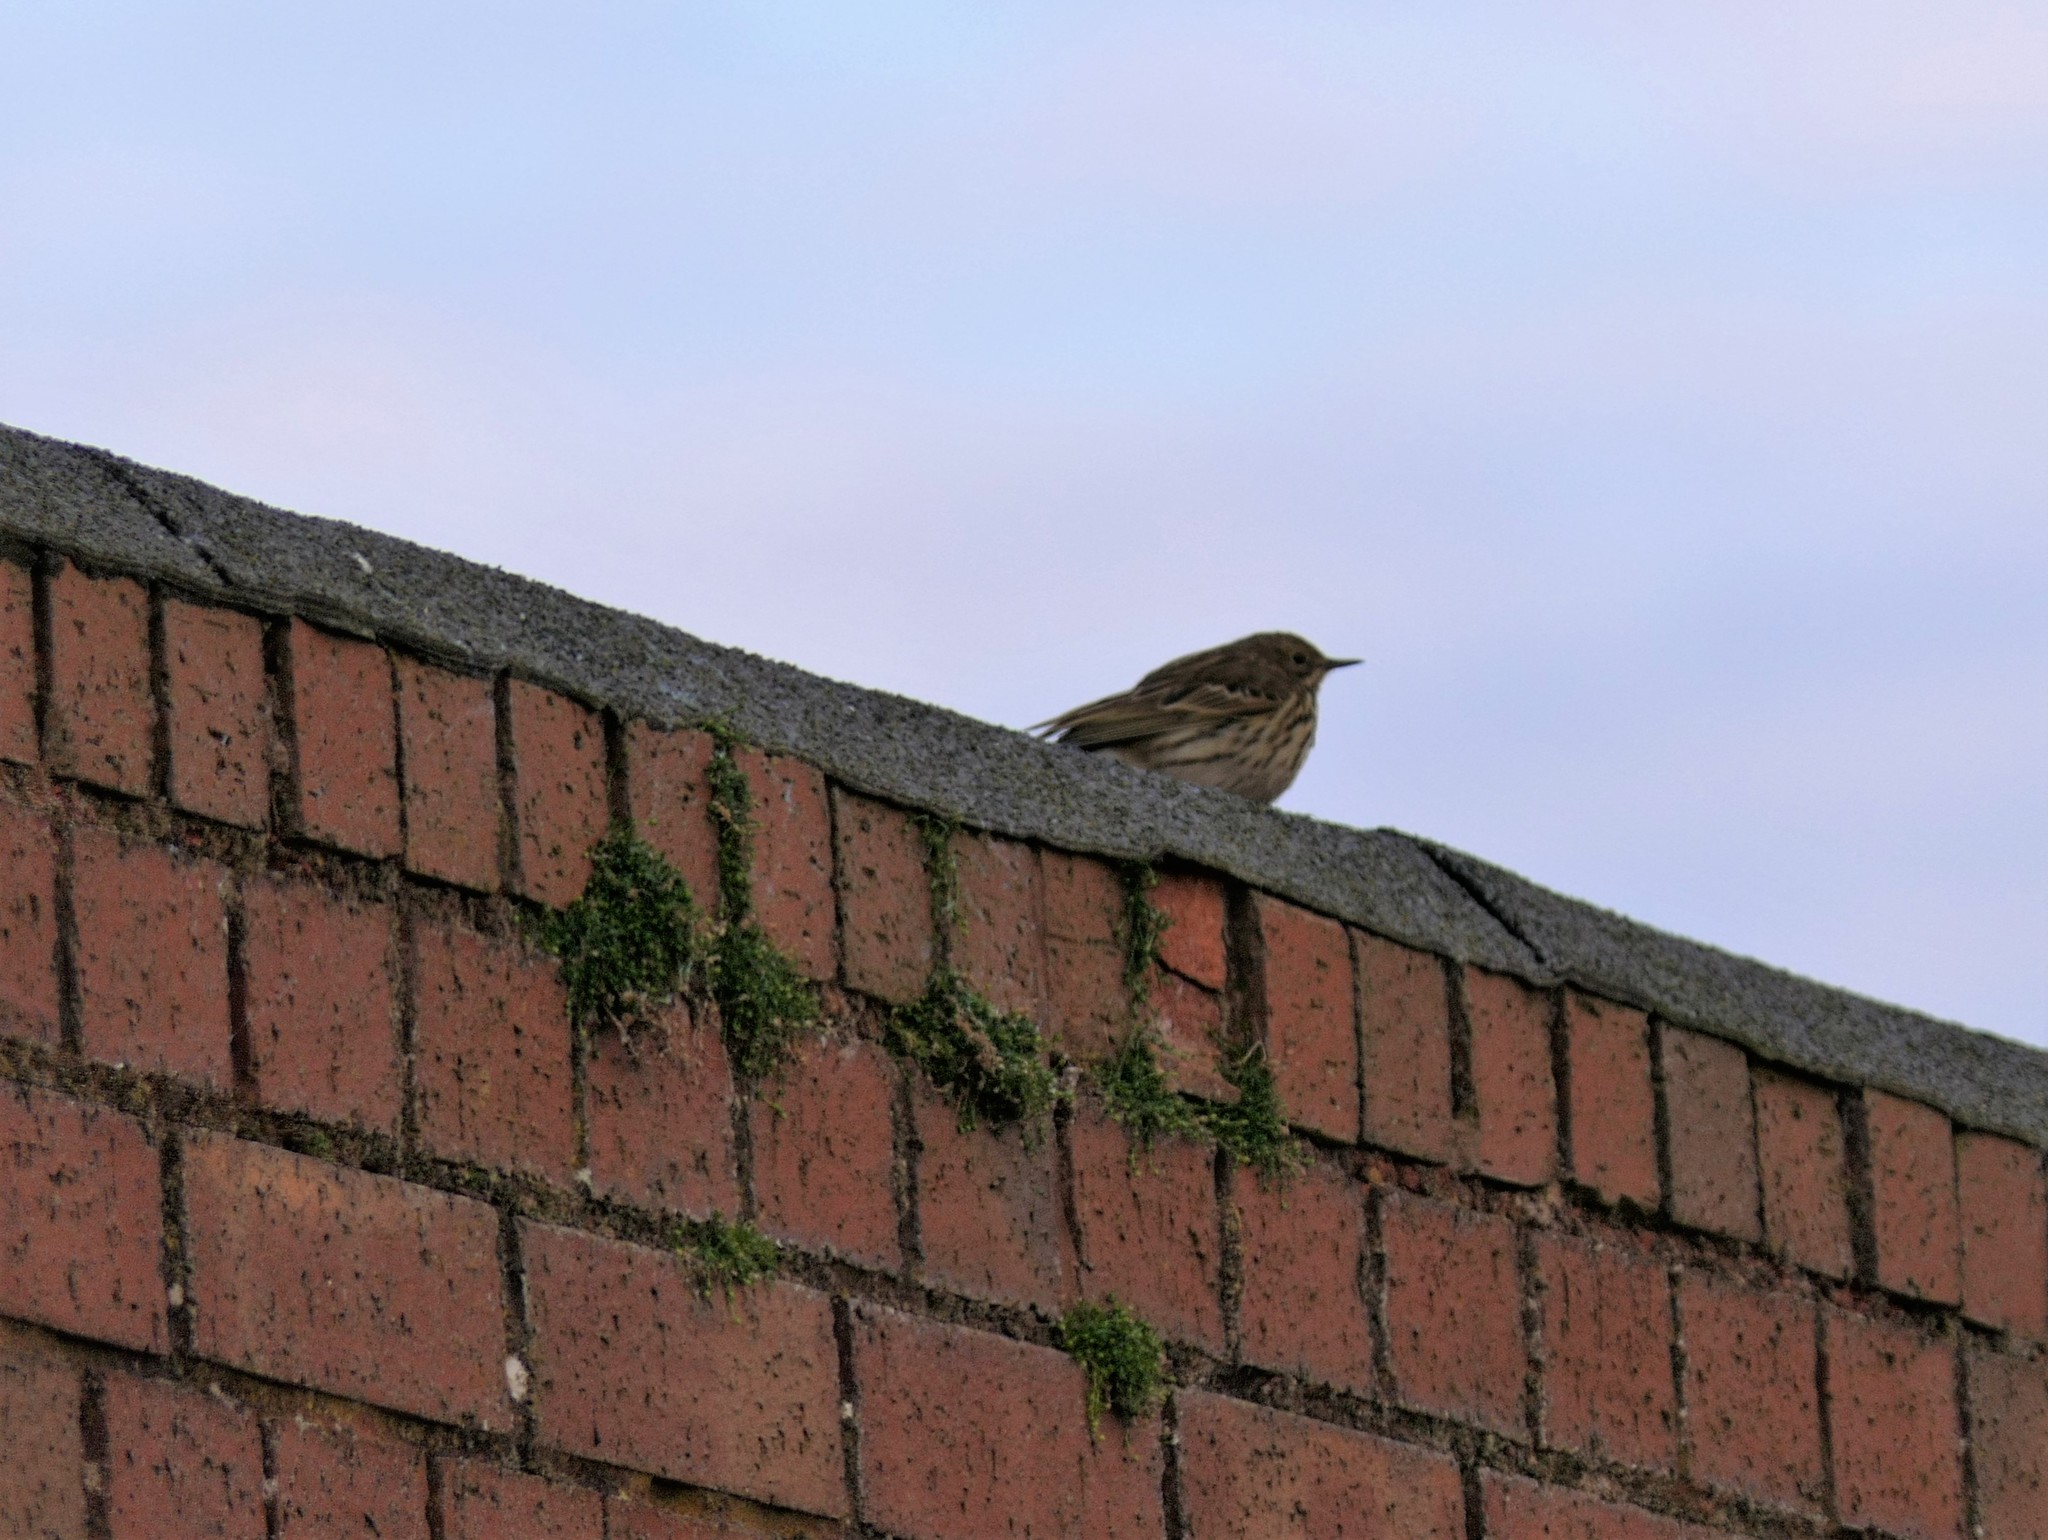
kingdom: Animalia
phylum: Chordata
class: Aves
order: Passeriformes
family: Motacillidae
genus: Anthus
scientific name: Anthus pratensis
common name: Meadow pipit
